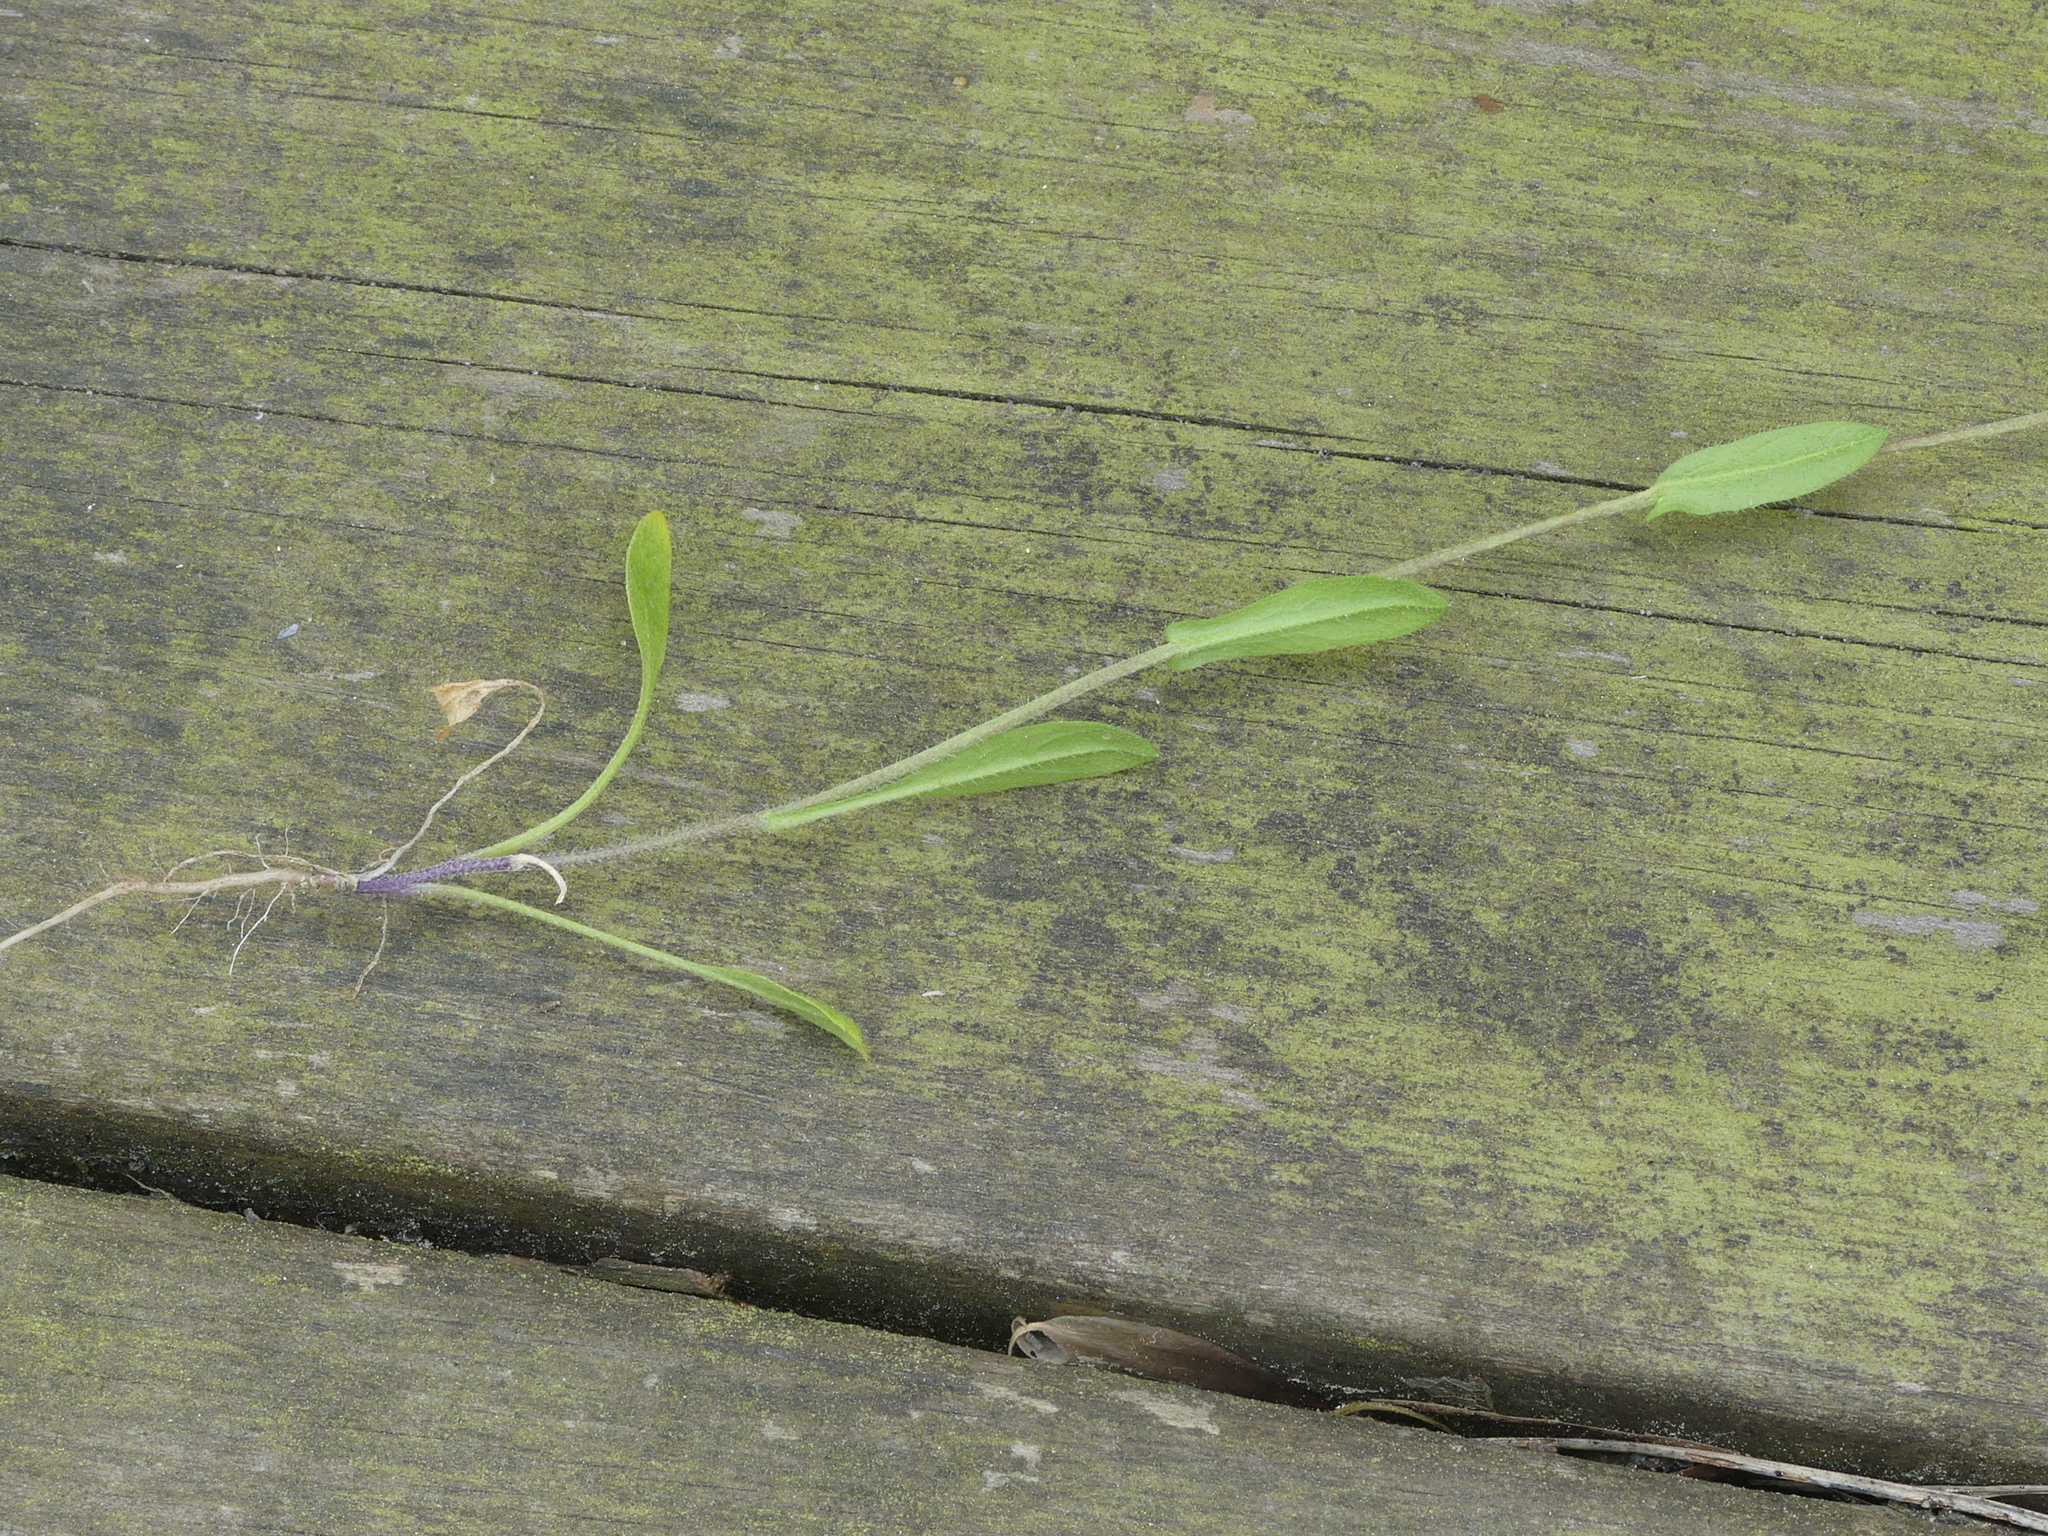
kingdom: Plantae
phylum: Tracheophyta
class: Magnoliopsida
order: Brassicales
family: Brassicaceae
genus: Capsella
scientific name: Capsella bursa-pastoris
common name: Shepherd's purse
